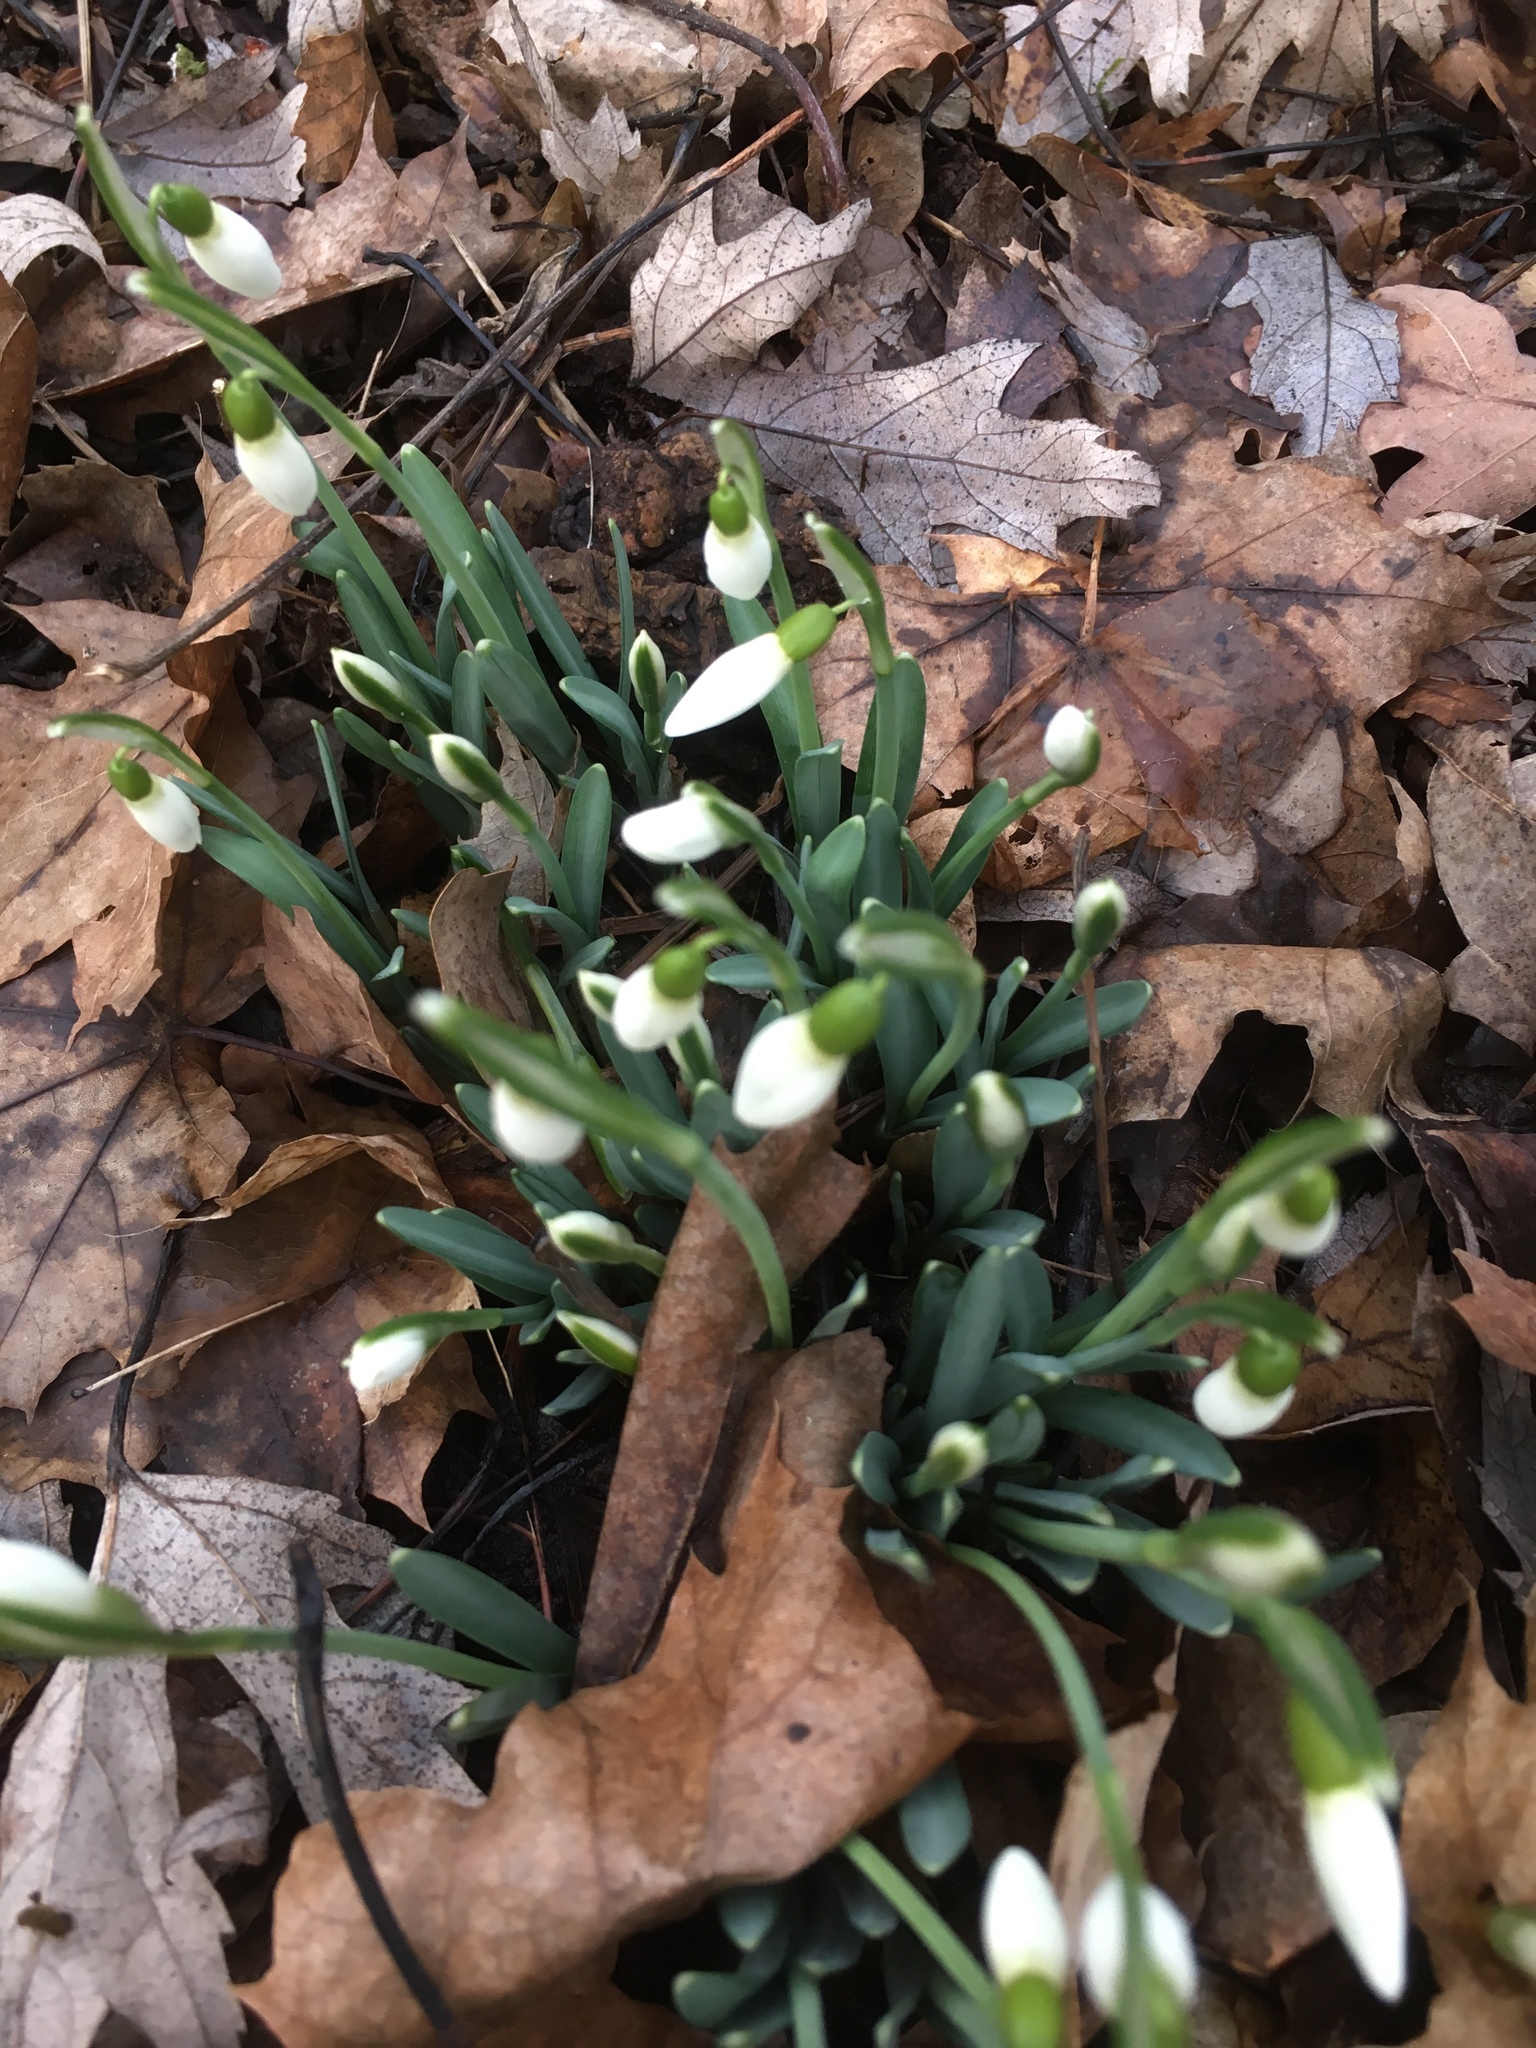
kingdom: Plantae
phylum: Tracheophyta
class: Liliopsida
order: Asparagales
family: Amaryllidaceae
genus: Galanthus
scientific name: Galanthus nivalis
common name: Snowdrop
